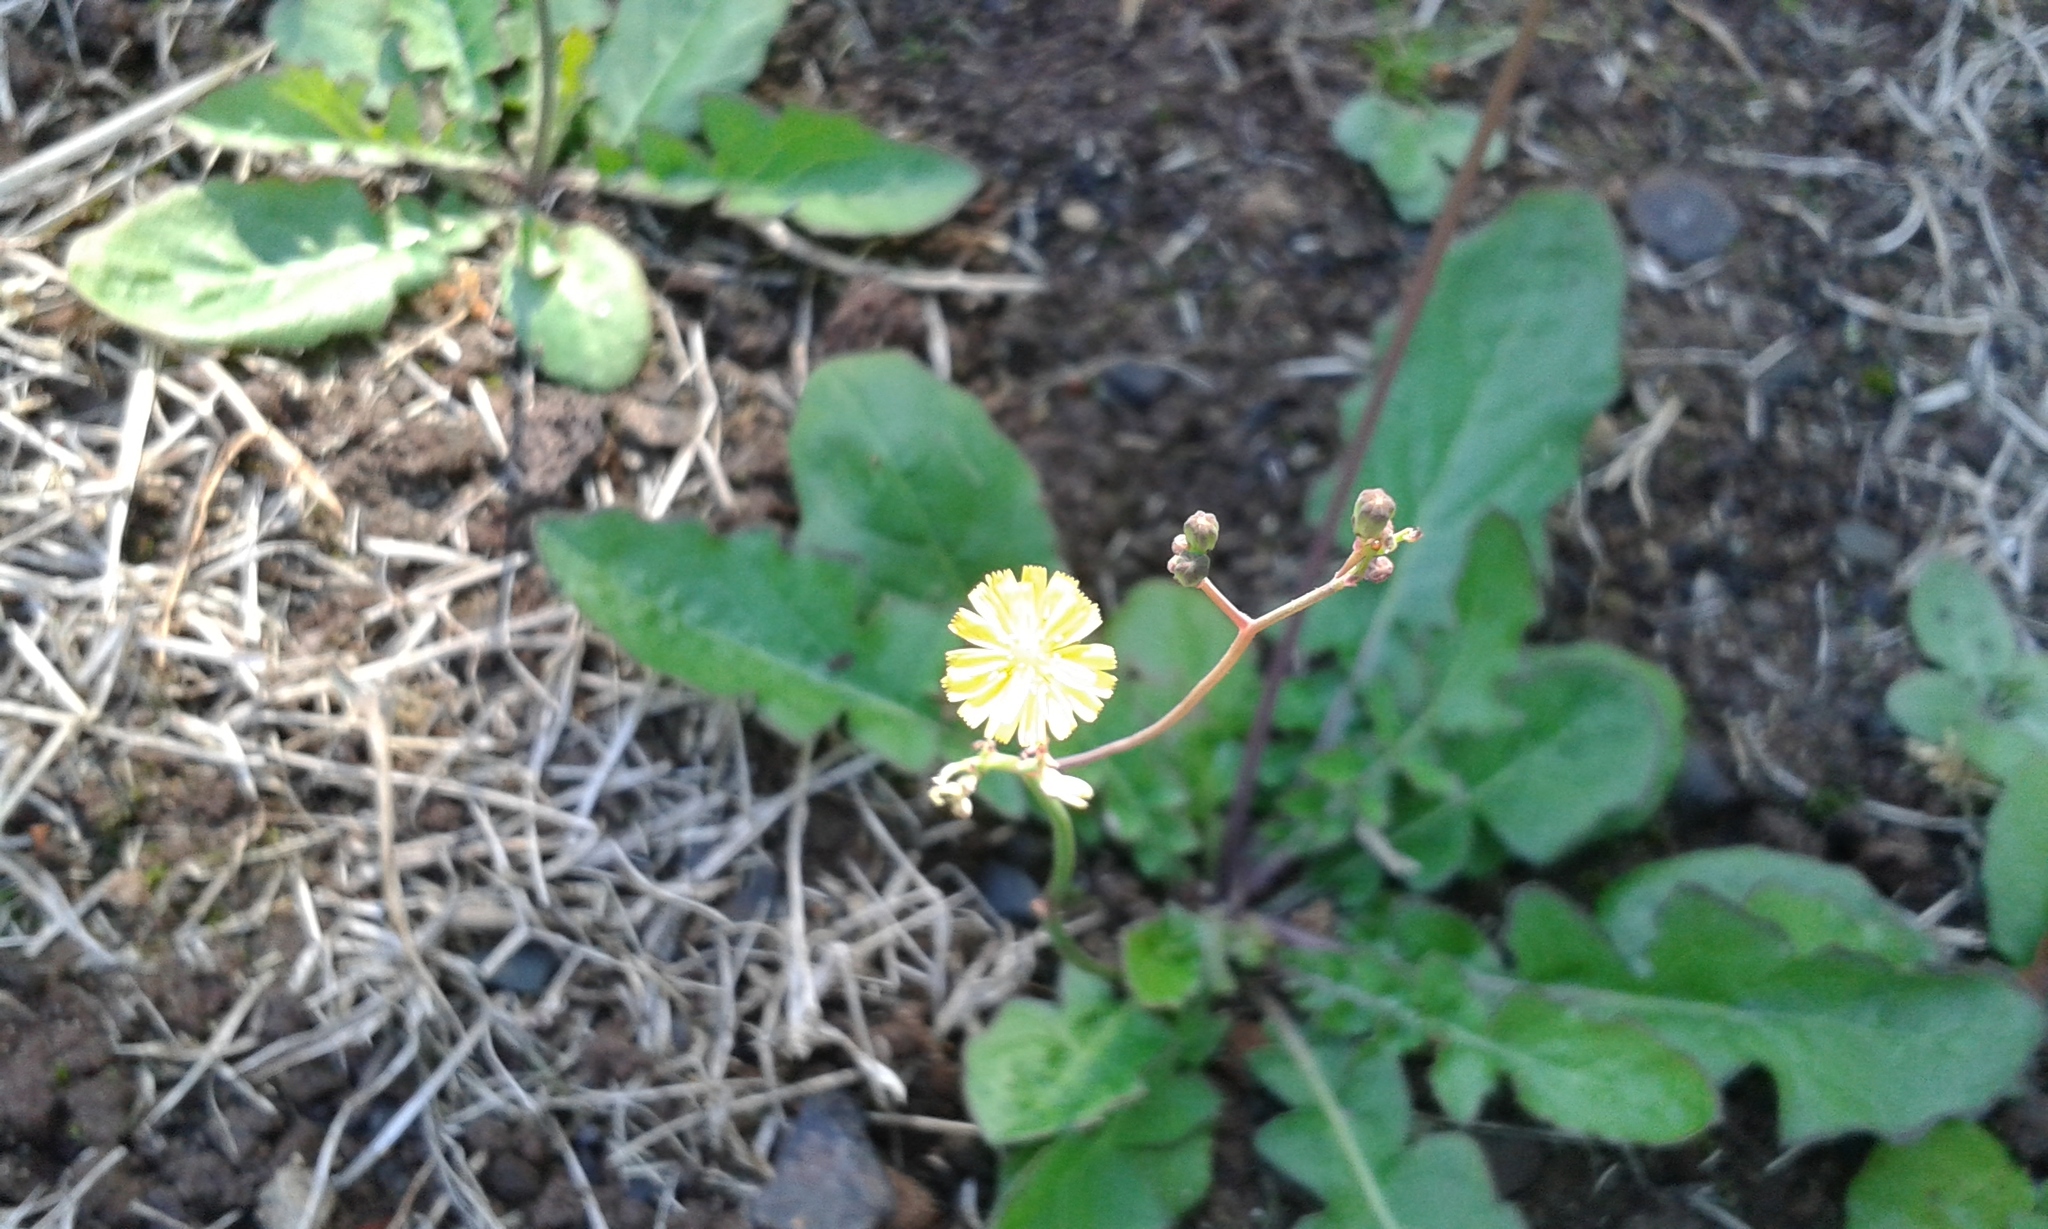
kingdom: Plantae
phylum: Tracheophyta
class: Magnoliopsida
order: Asterales
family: Asteraceae
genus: Youngia
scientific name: Youngia japonica
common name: Oriental false hawksbeard
